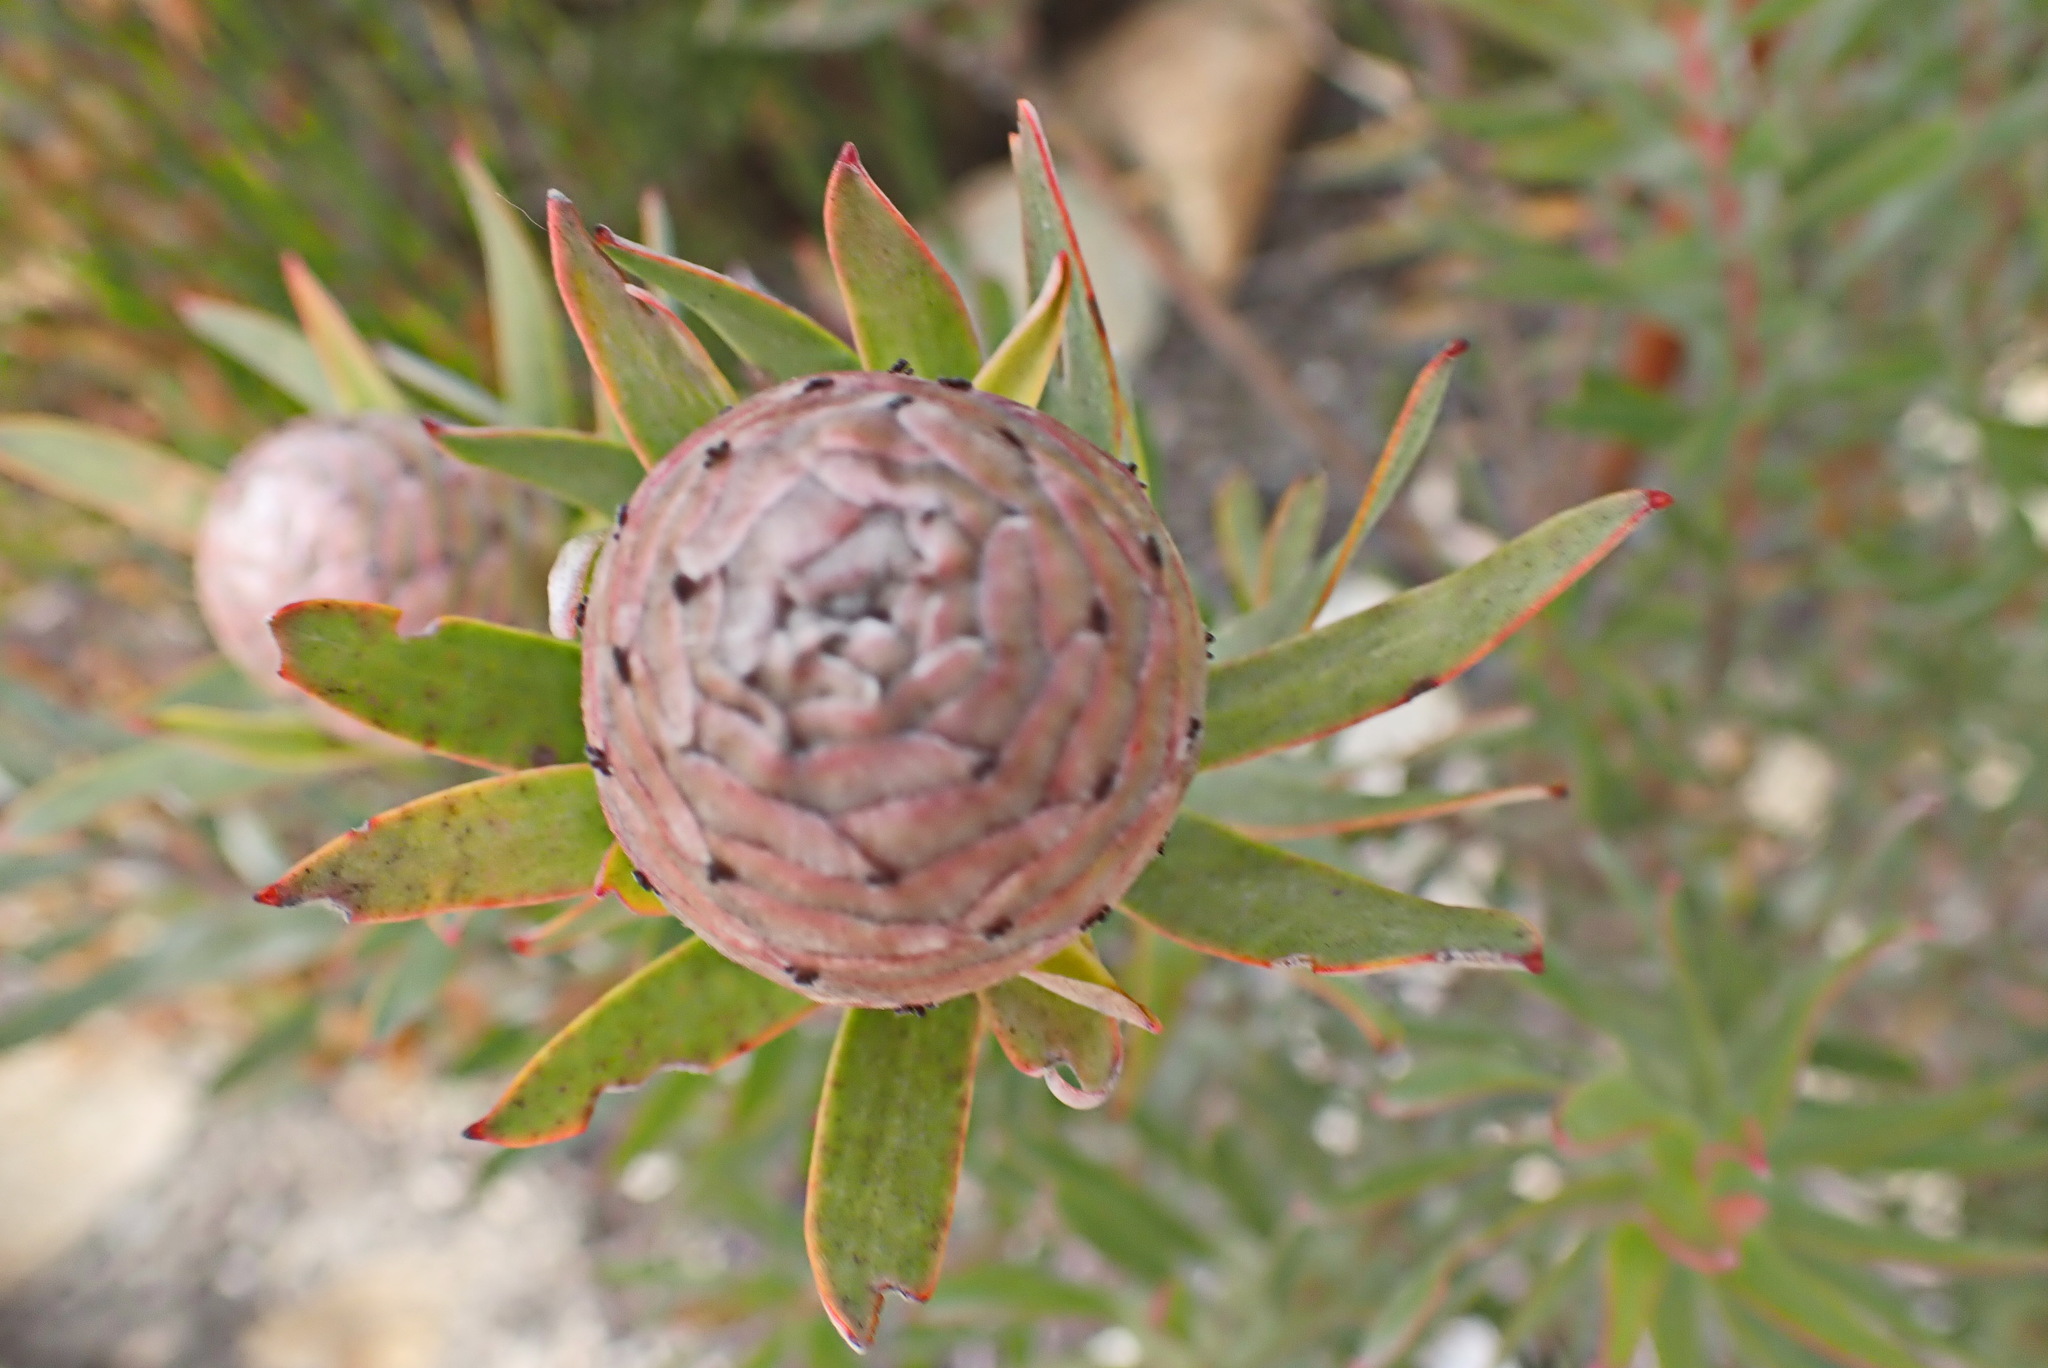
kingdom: Plantae
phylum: Tracheophyta
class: Magnoliopsida
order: Proteales
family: Proteaceae
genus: Leucadendron
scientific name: Leucadendron uliginosum
